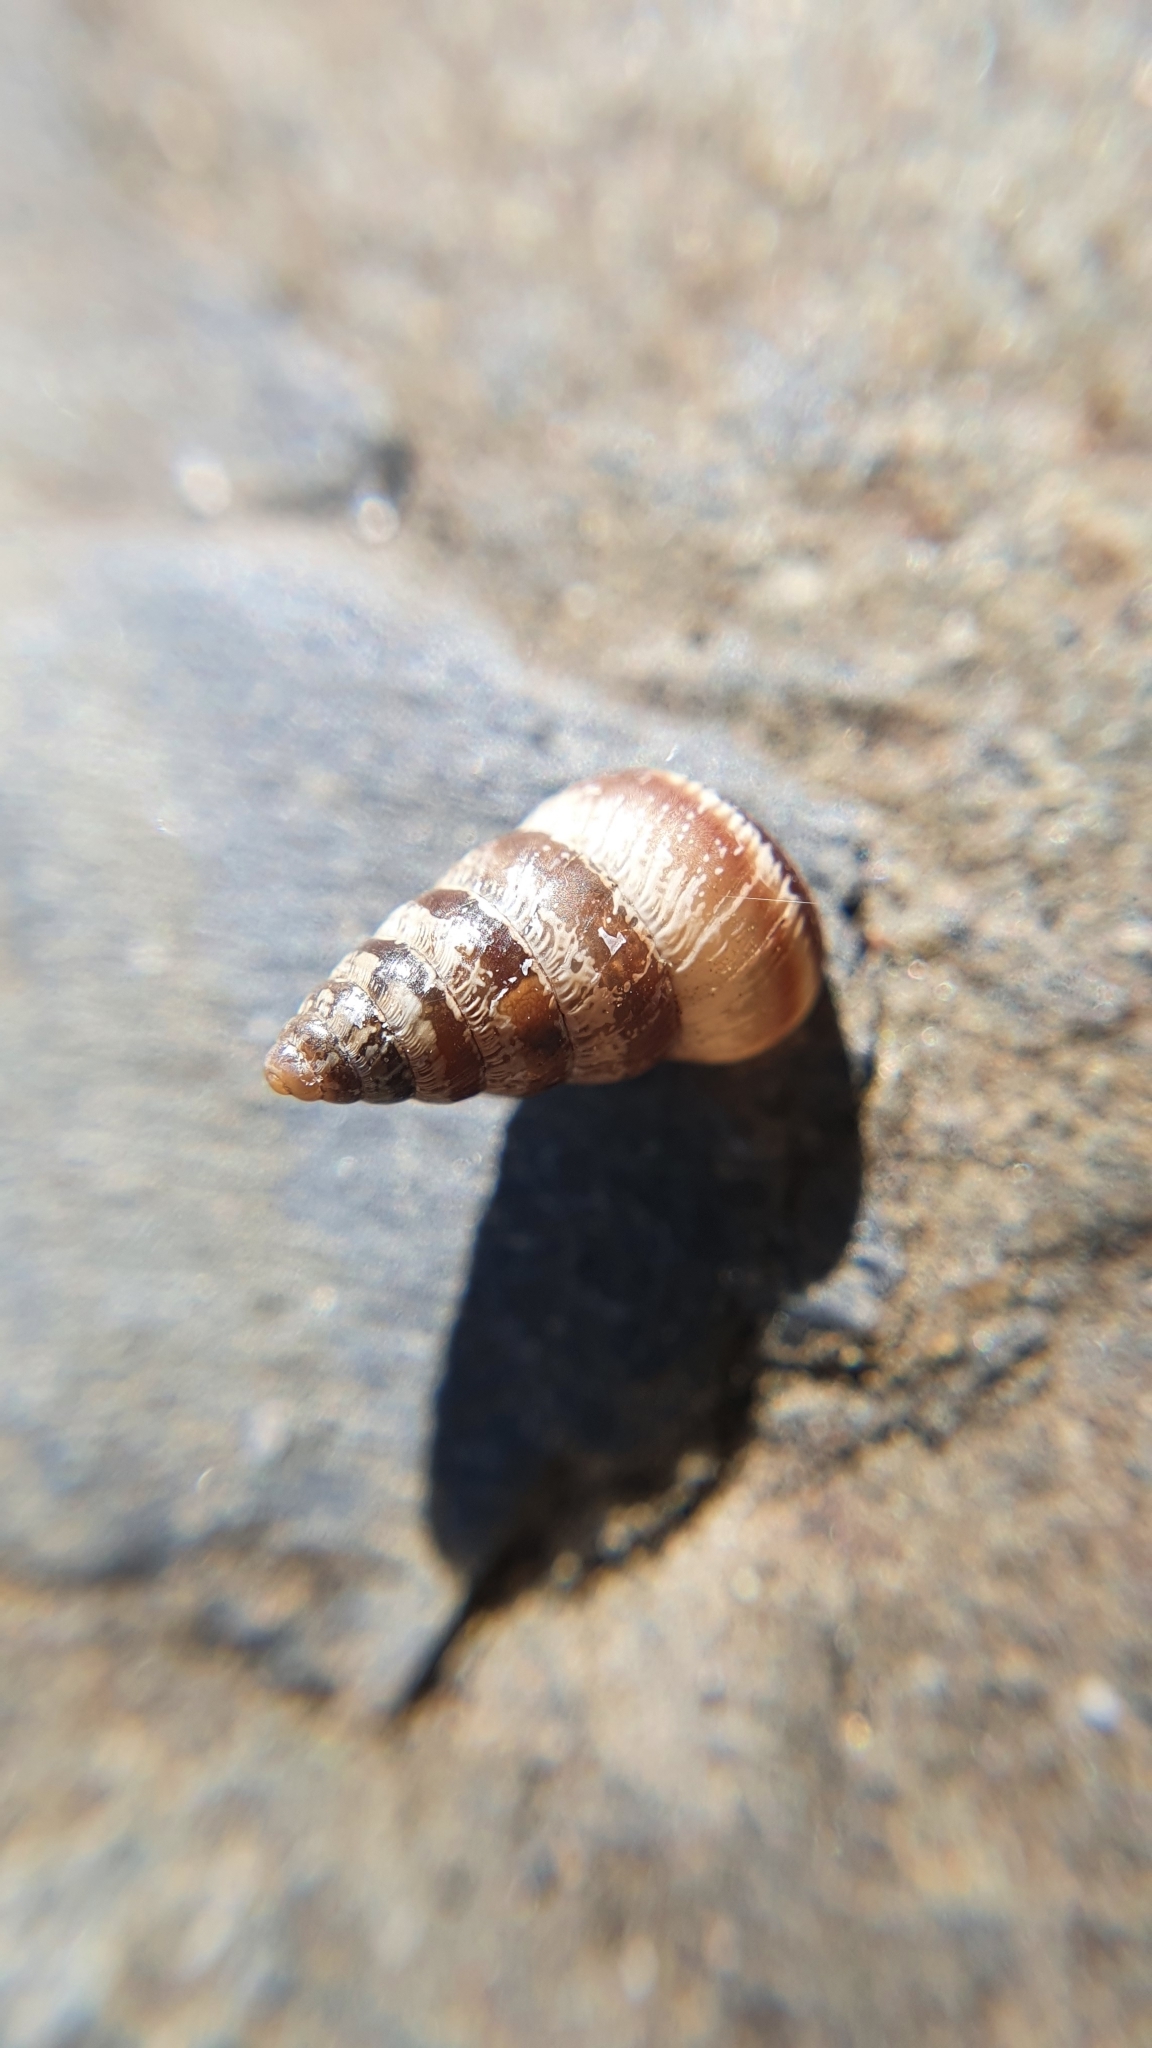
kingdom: Animalia
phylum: Mollusca
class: Gastropoda
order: Stylommatophora
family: Geomitridae
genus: Cochlicella
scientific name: Cochlicella barbara
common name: Potbellied helicellid
